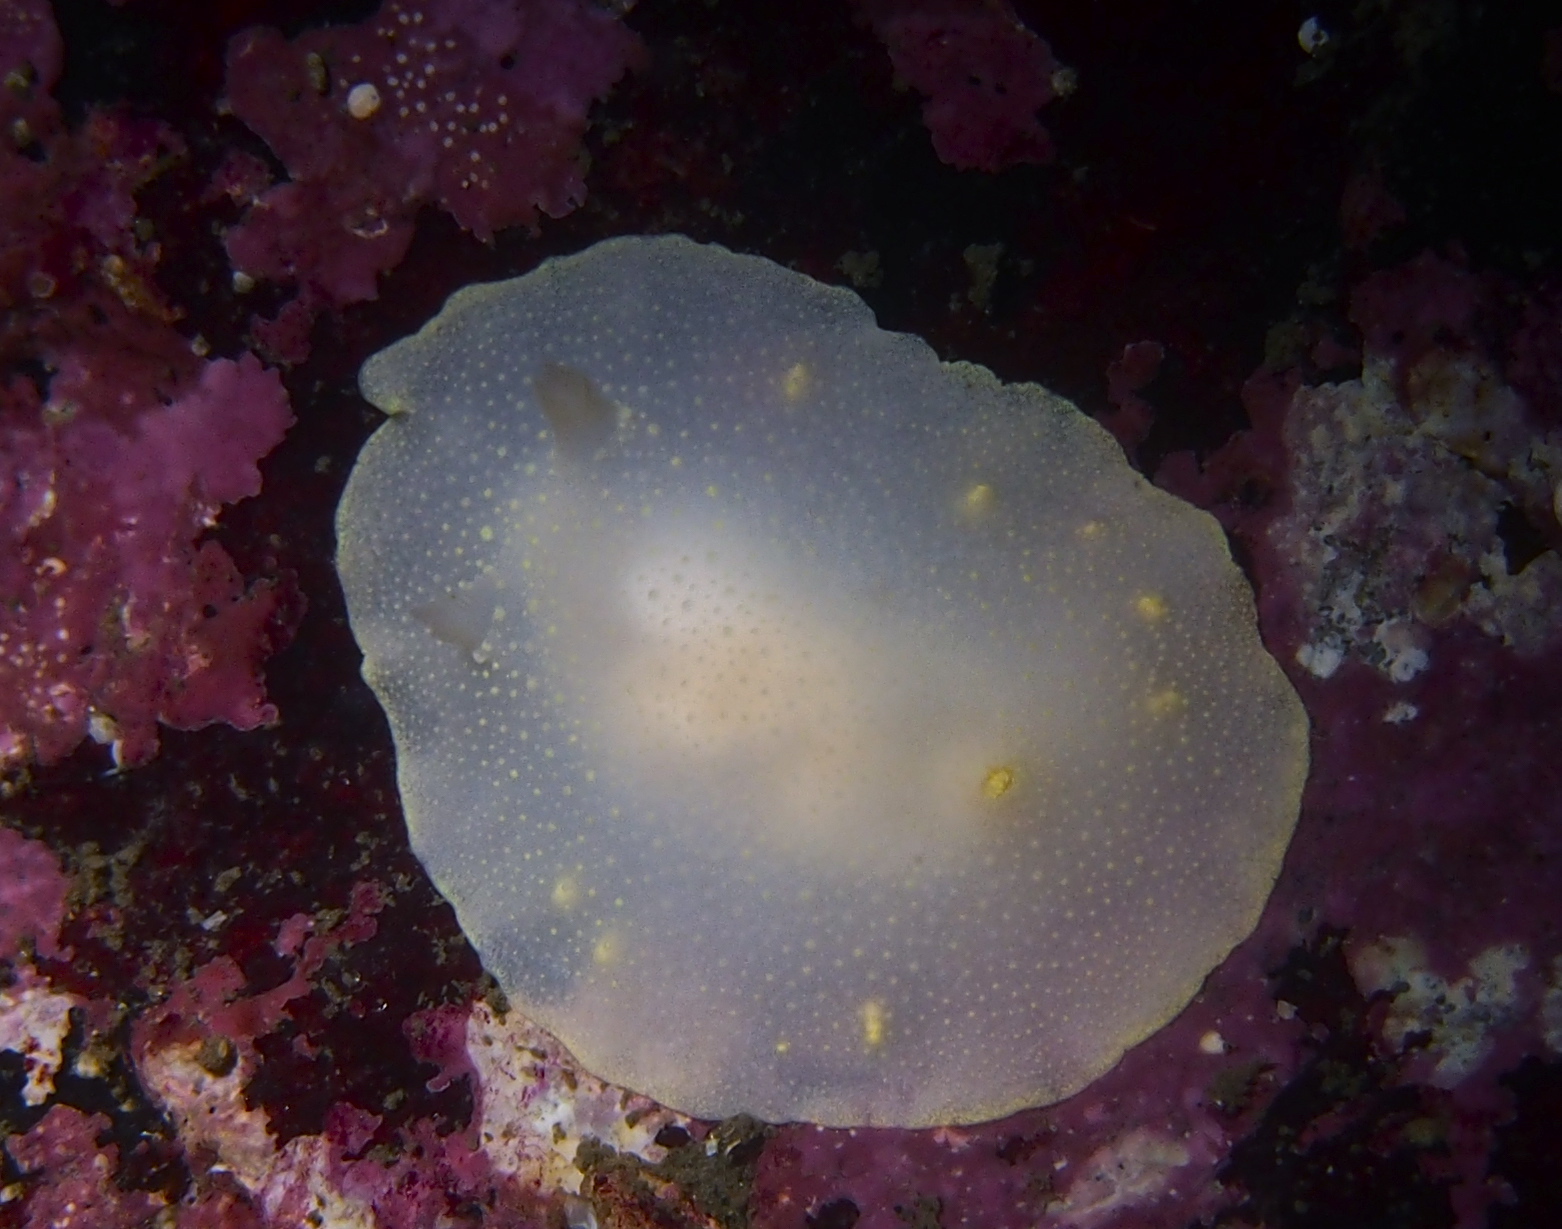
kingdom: Animalia
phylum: Mollusca
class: Gastropoda
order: Nudibranchia
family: Cadlinidae
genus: Cadlina
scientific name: Cadlina laevis
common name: White atlantic cadlina
